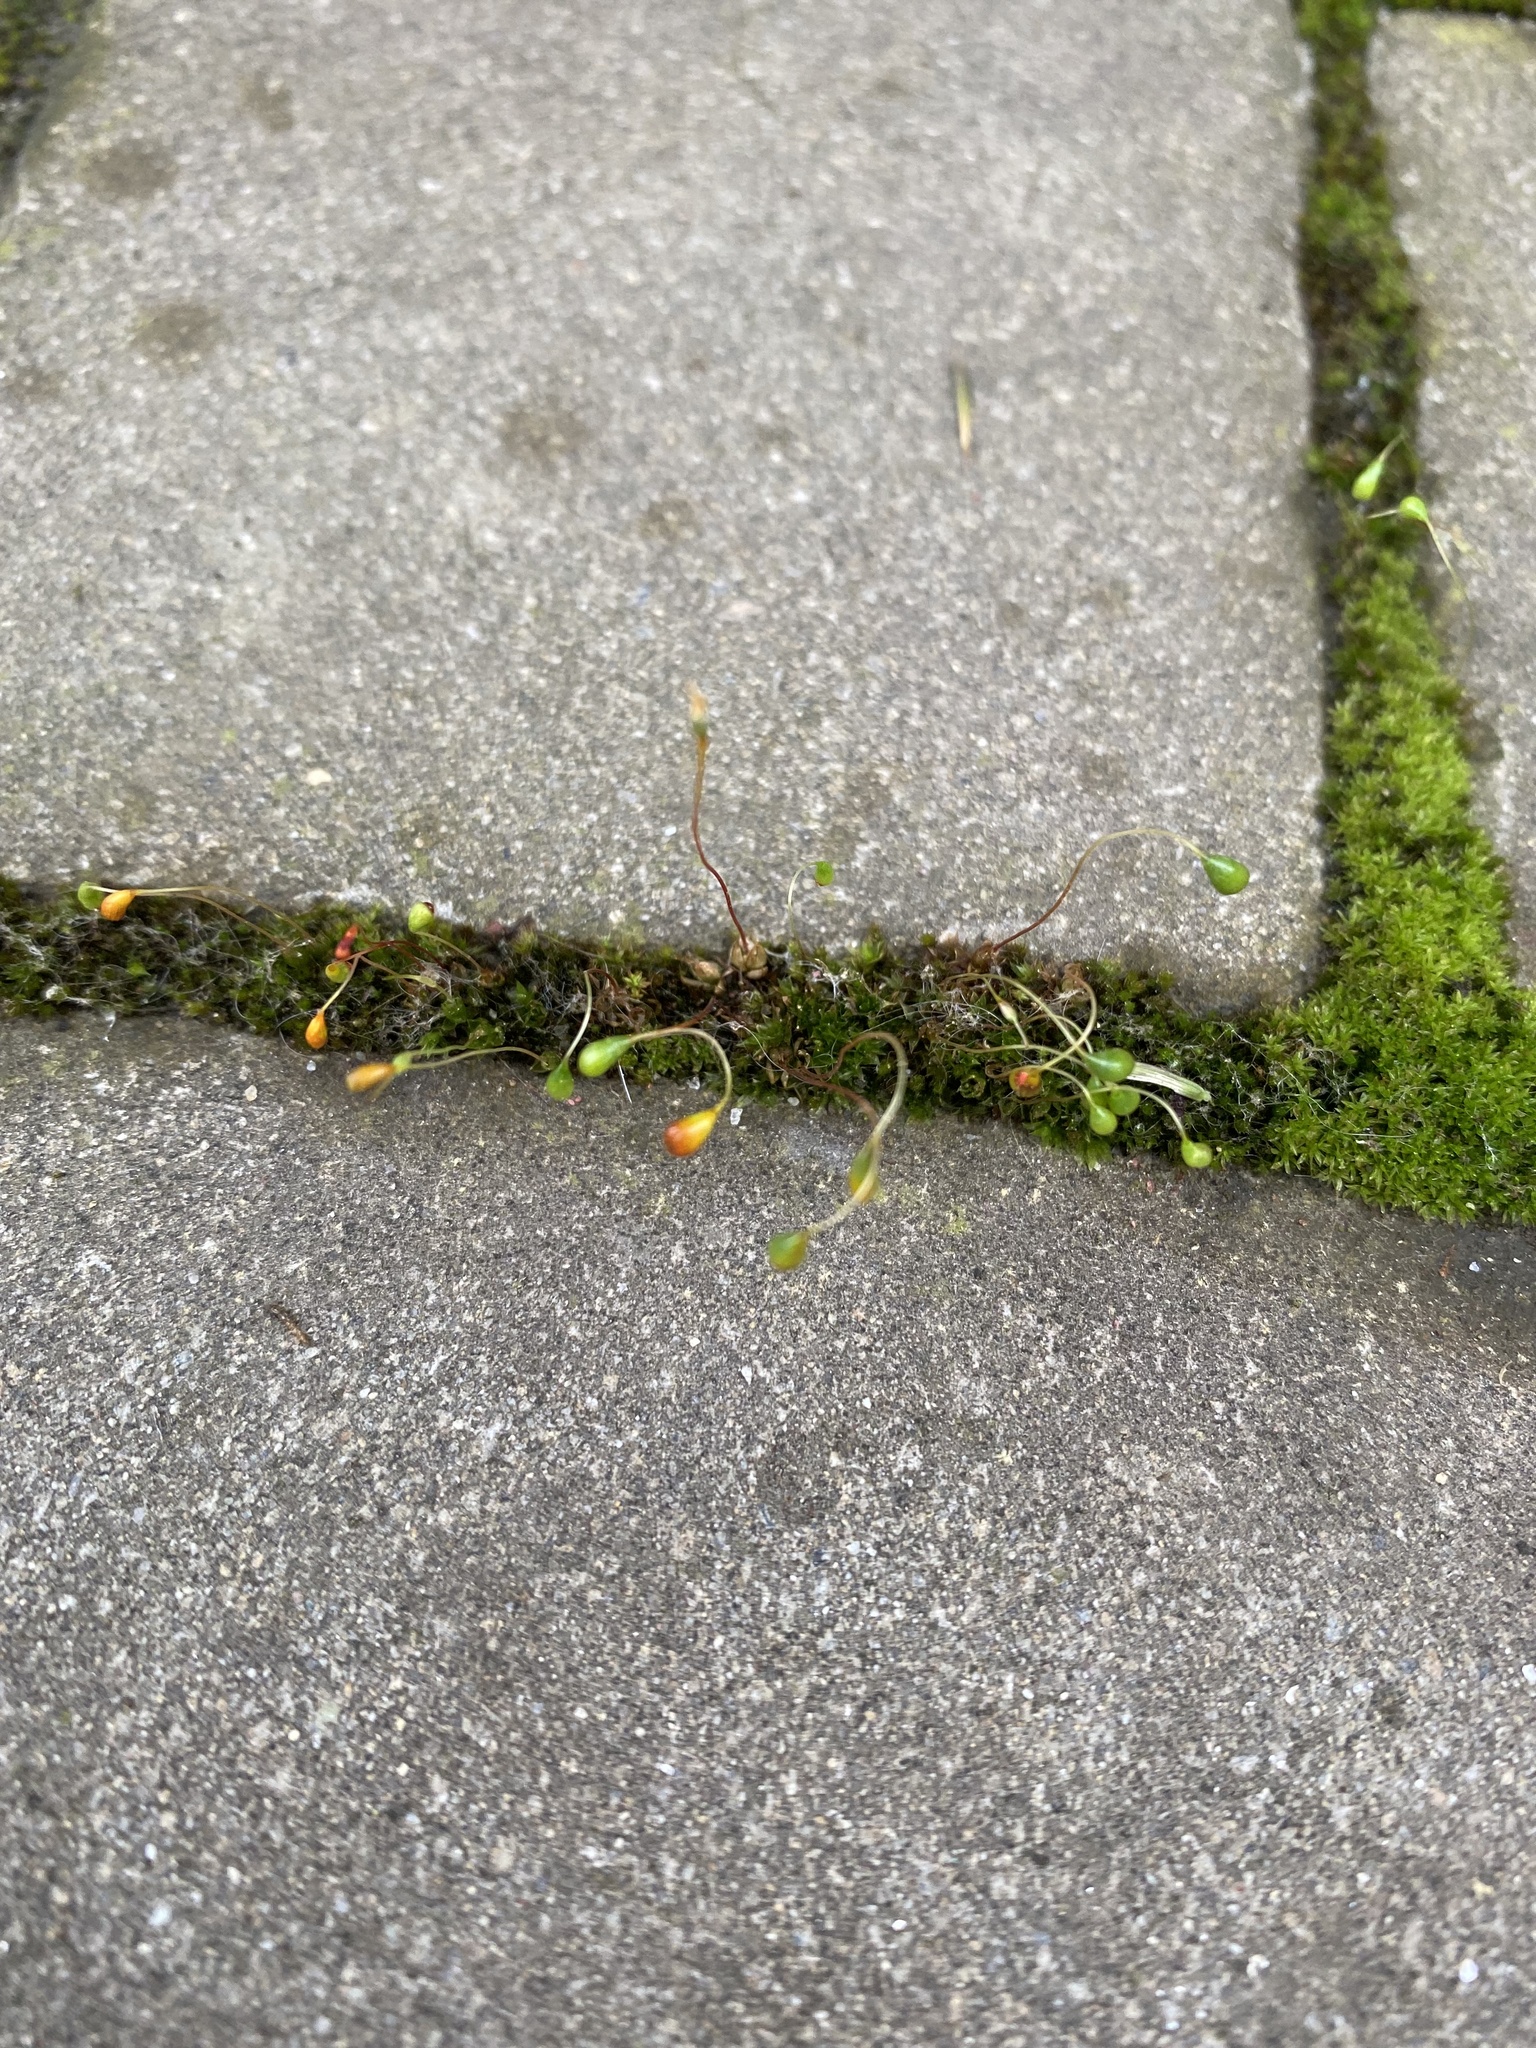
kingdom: Plantae
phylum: Bryophyta
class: Bryopsida
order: Funariales
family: Funariaceae
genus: Funaria
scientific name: Funaria hygrometrica
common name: Common cord moss
